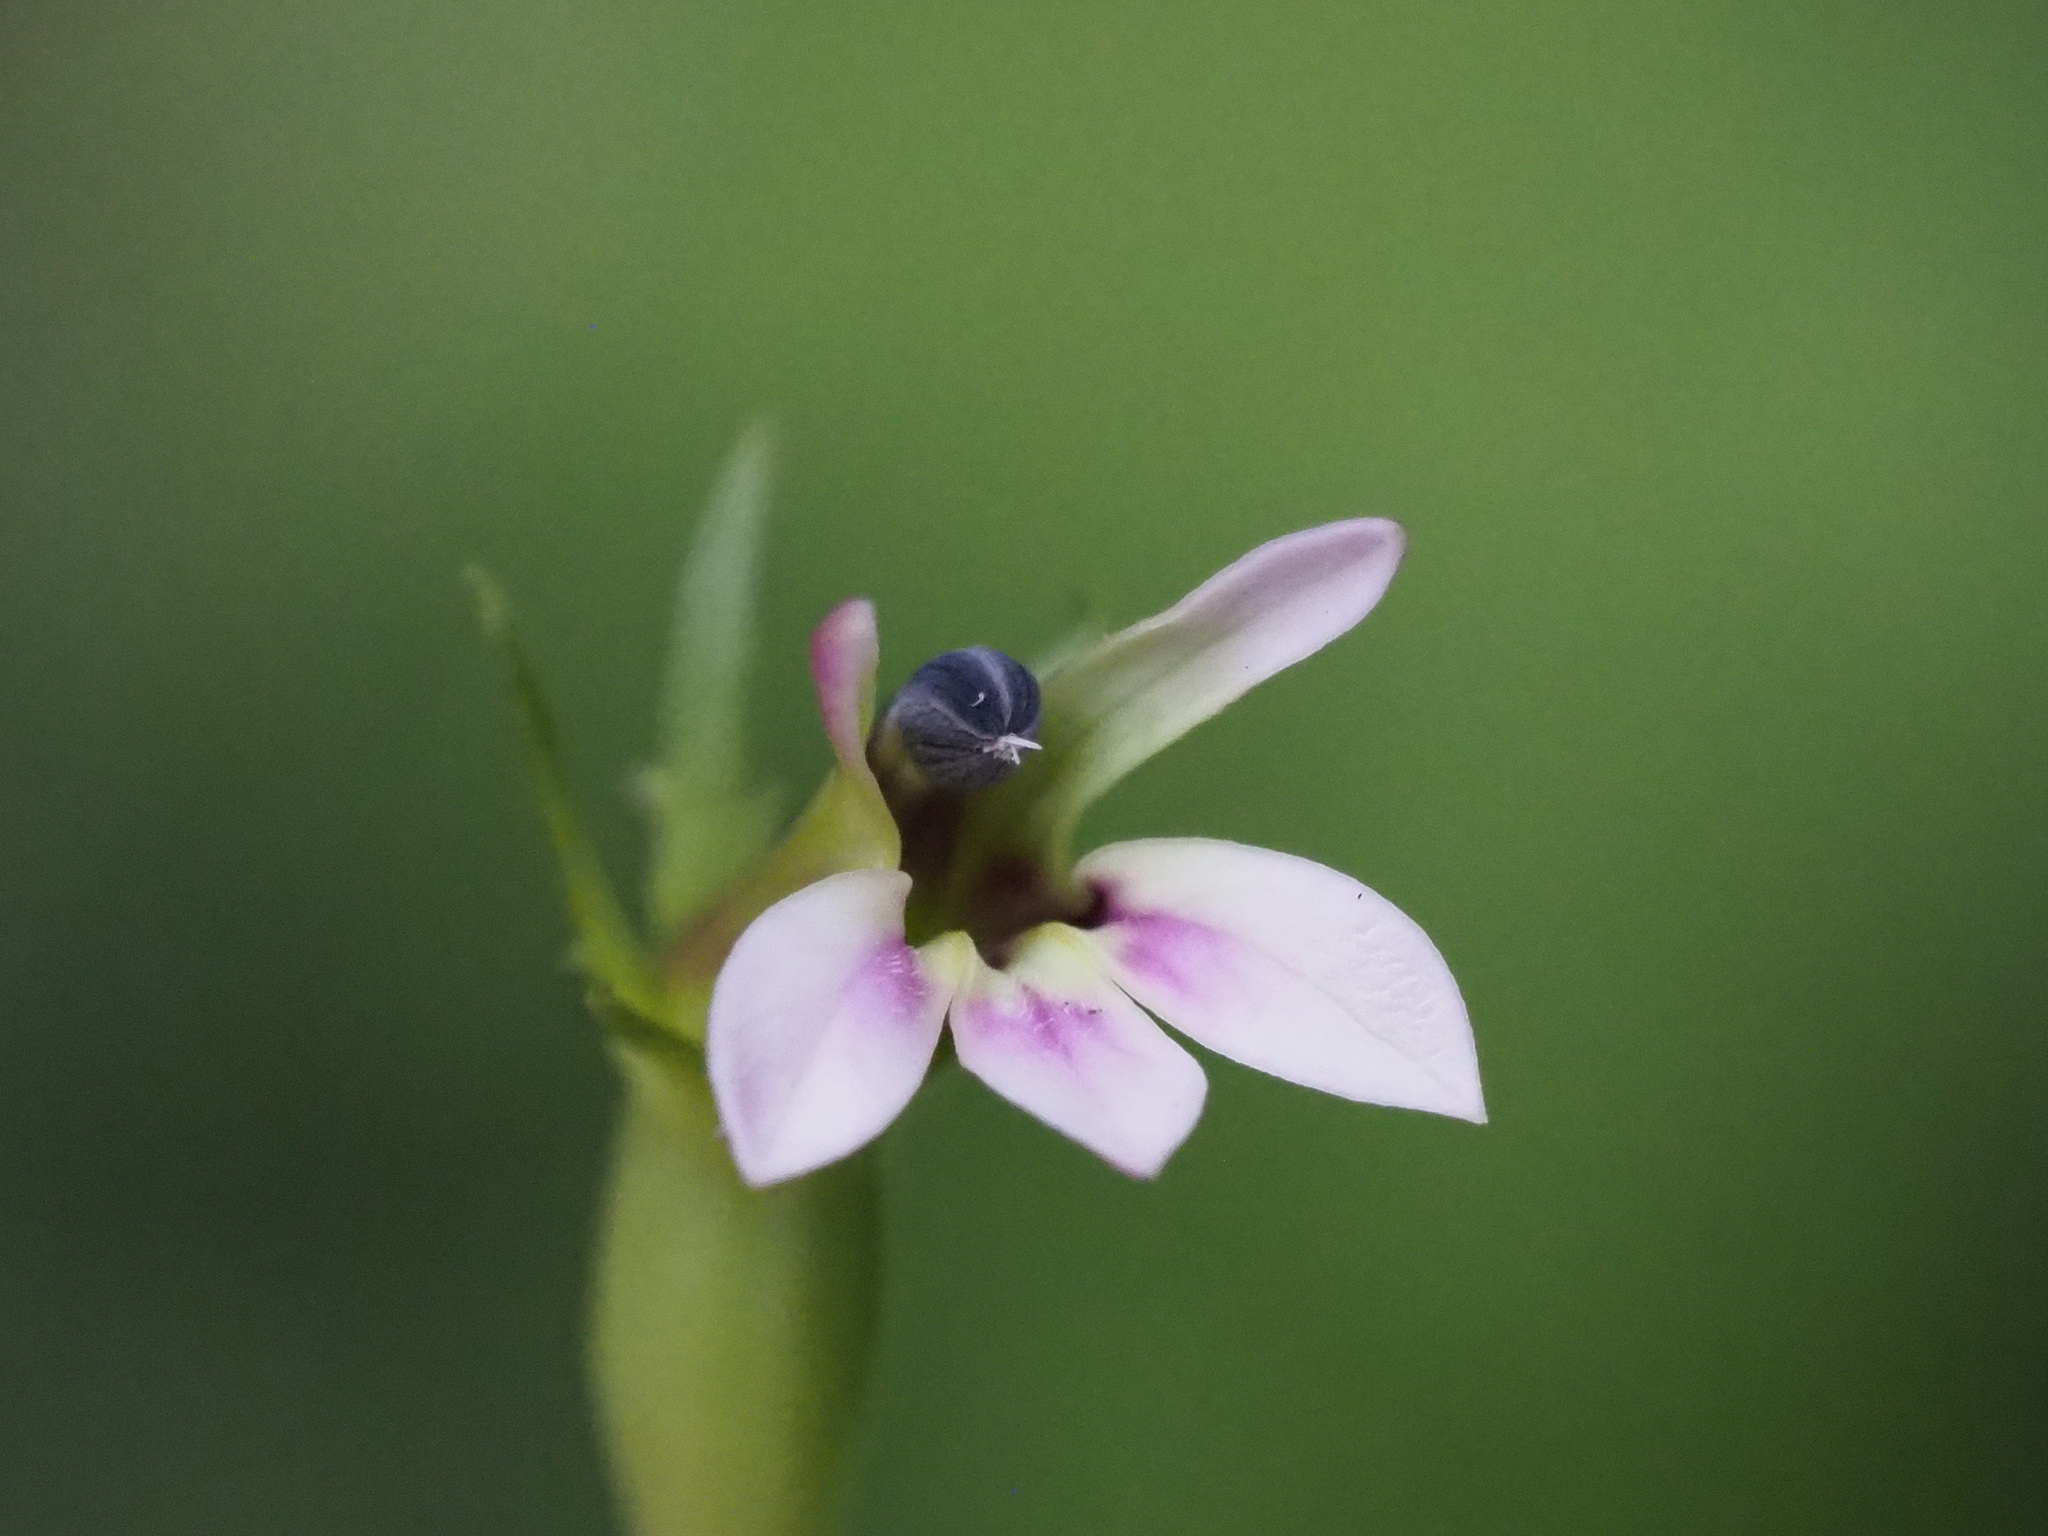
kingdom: Plantae
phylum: Tracheophyta
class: Magnoliopsida
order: Asterales
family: Campanulaceae
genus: Lobelia
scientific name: Lobelia nummularia
